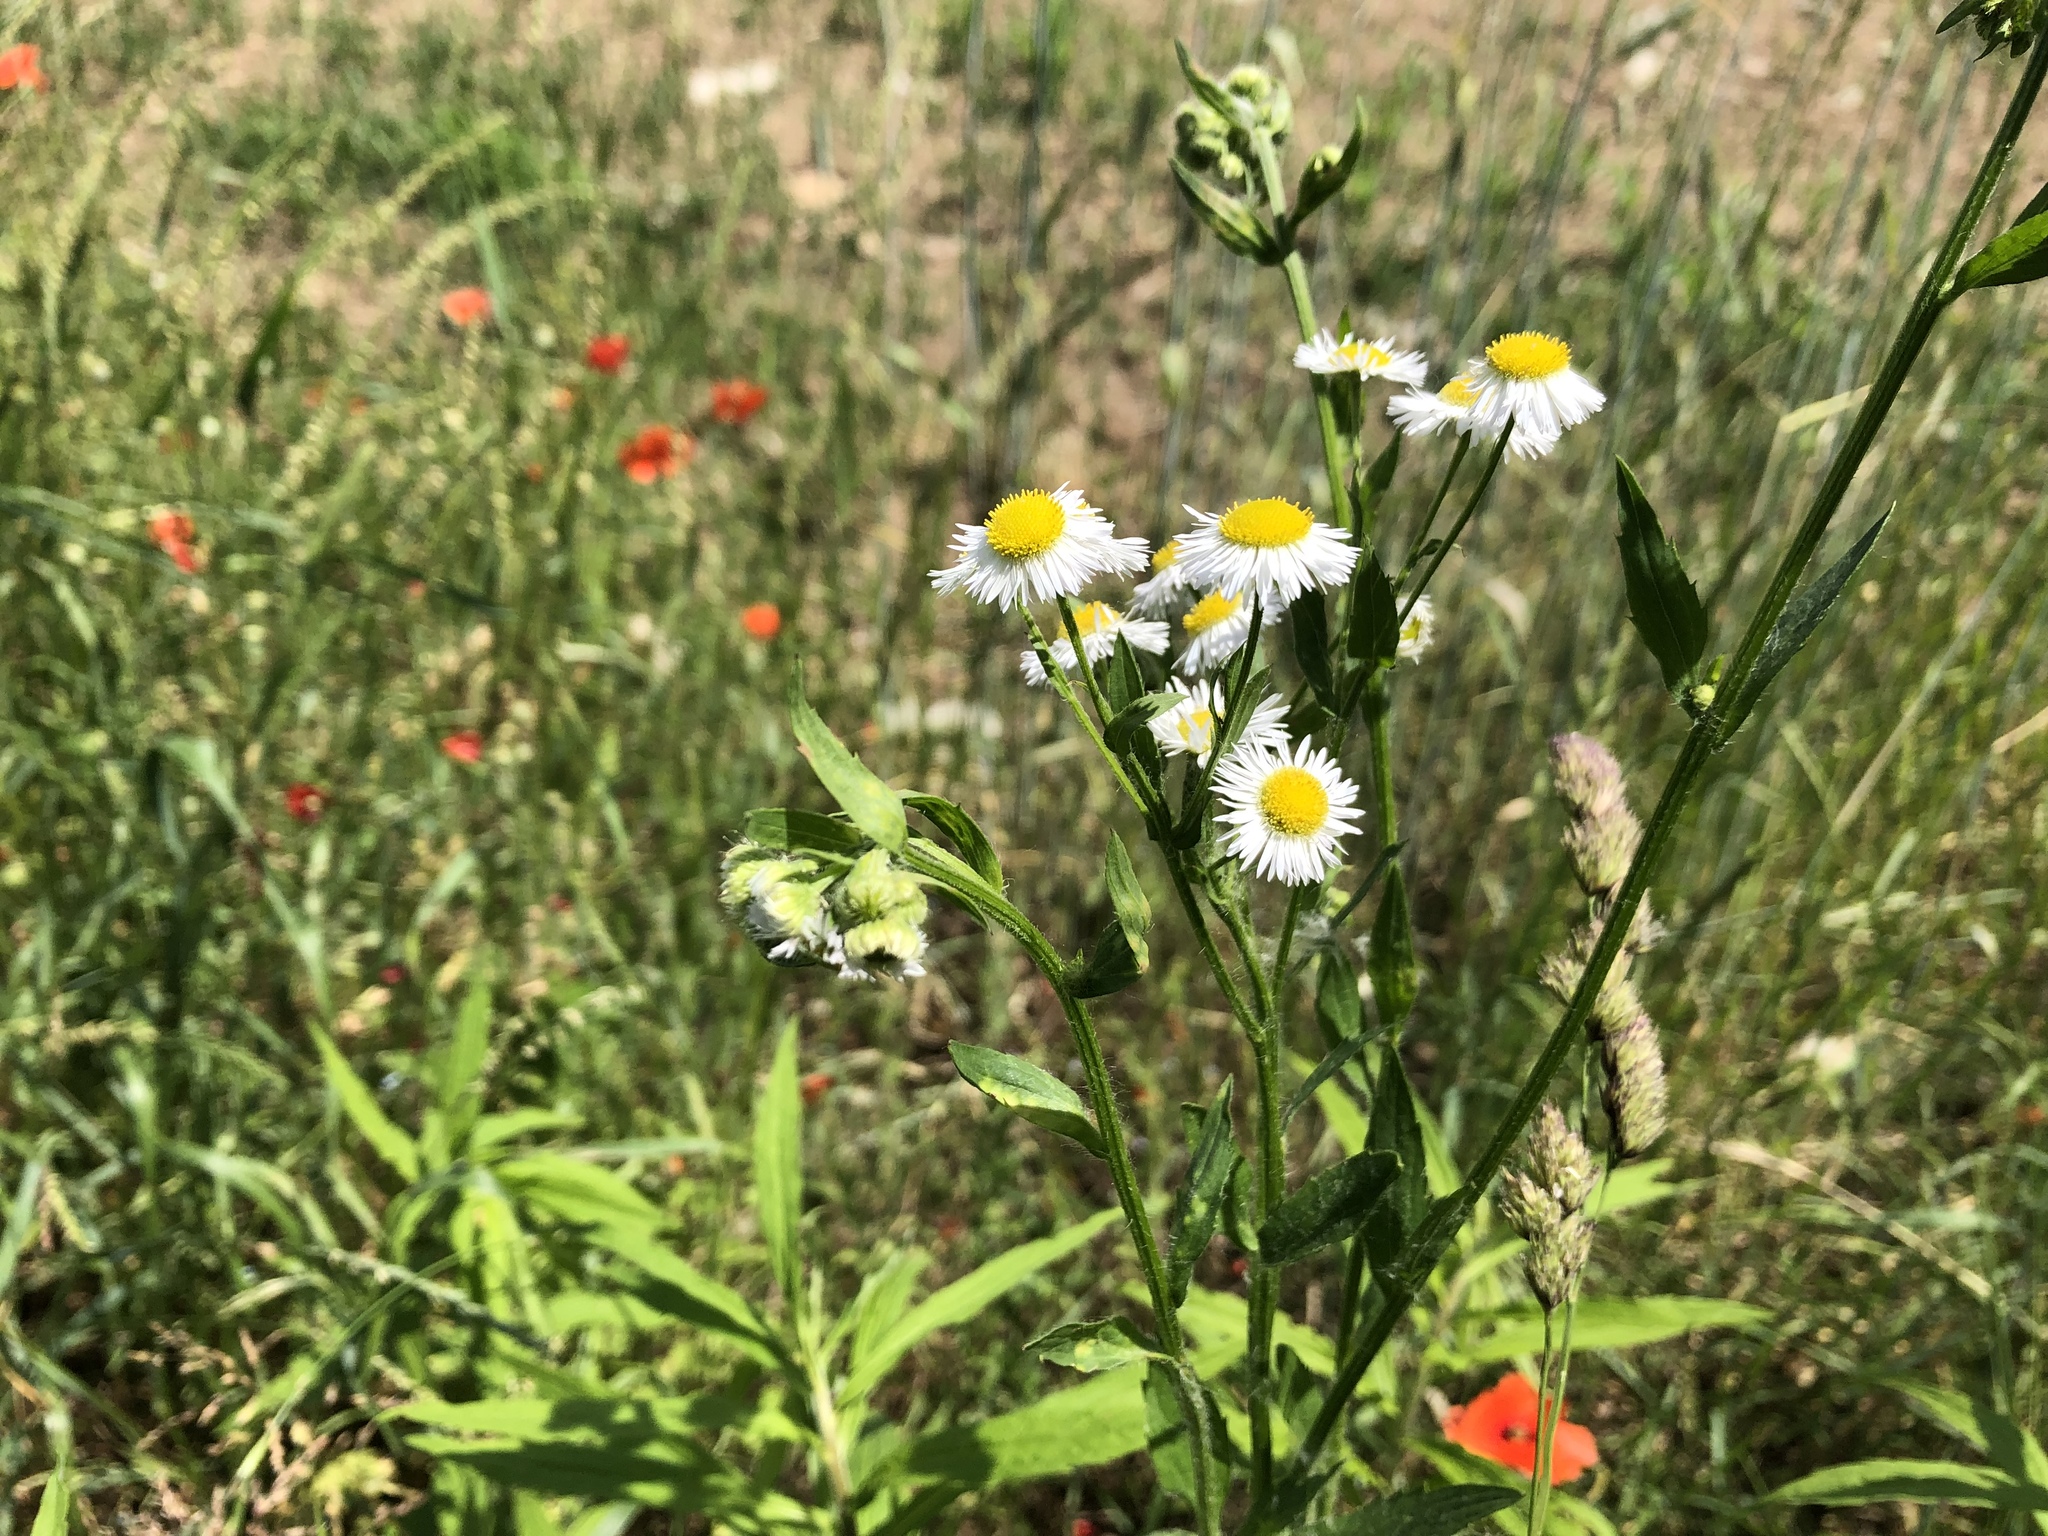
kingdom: Plantae
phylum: Tracheophyta
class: Magnoliopsida
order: Asterales
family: Asteraceae
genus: Erigeron
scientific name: Erigeron annuus
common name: Tall fleabane
